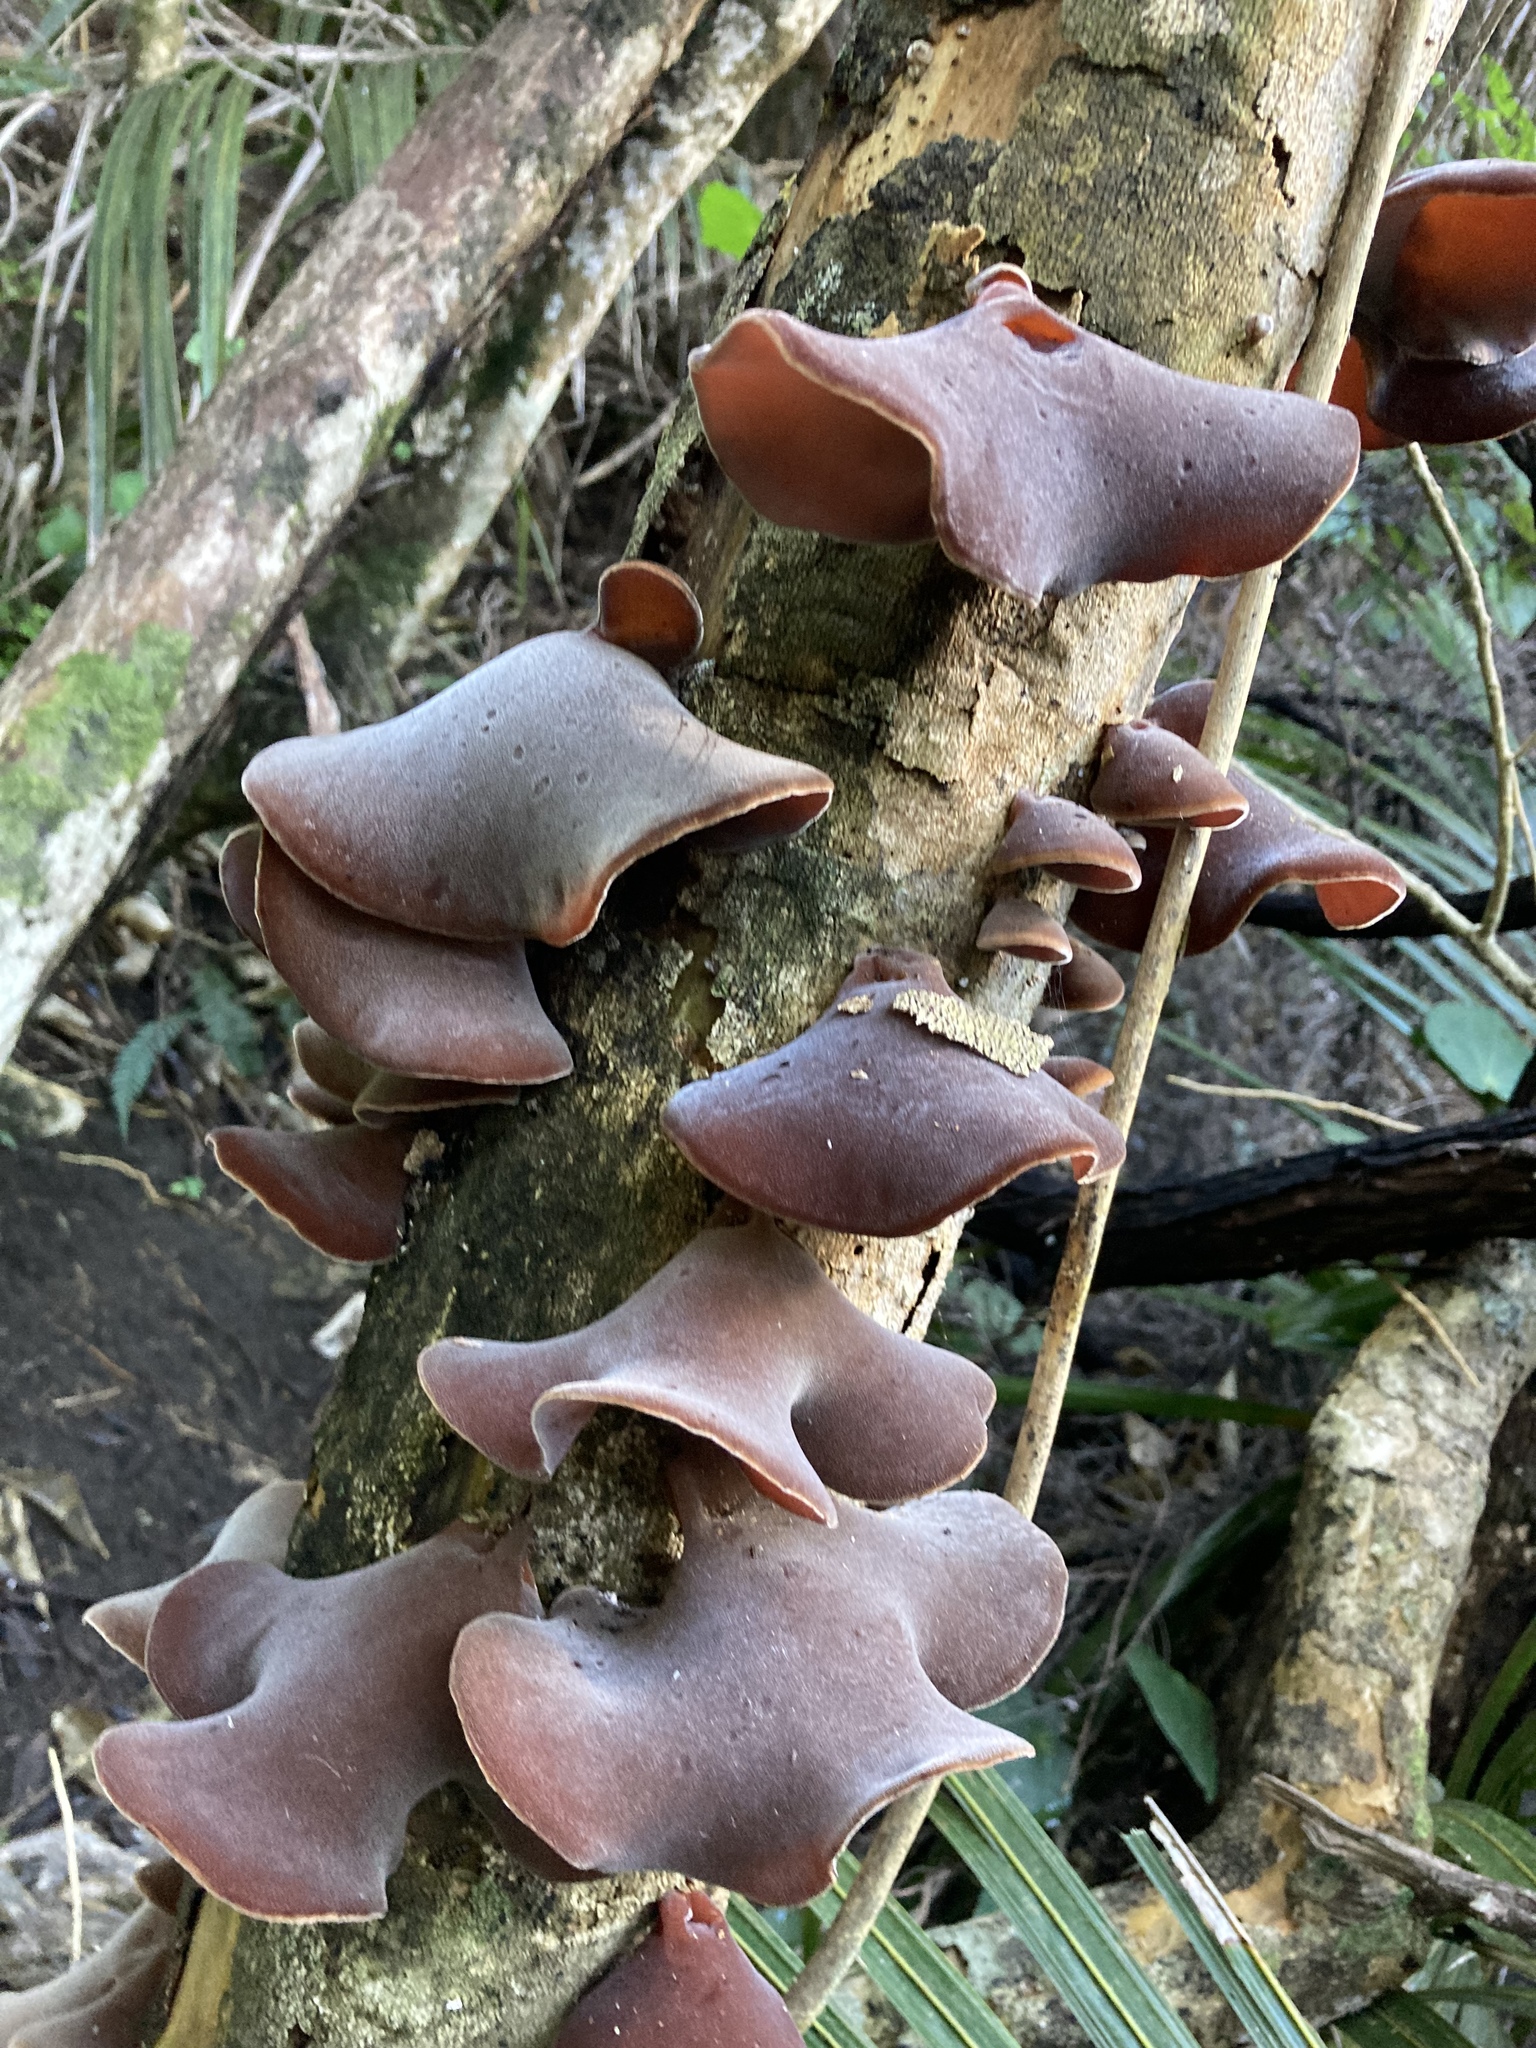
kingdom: Fungi
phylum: Basidiomycota
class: Agaricomycetes
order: Auriculariales
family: Auriculariaceae
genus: Auricularia
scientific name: Auricularia cornea
